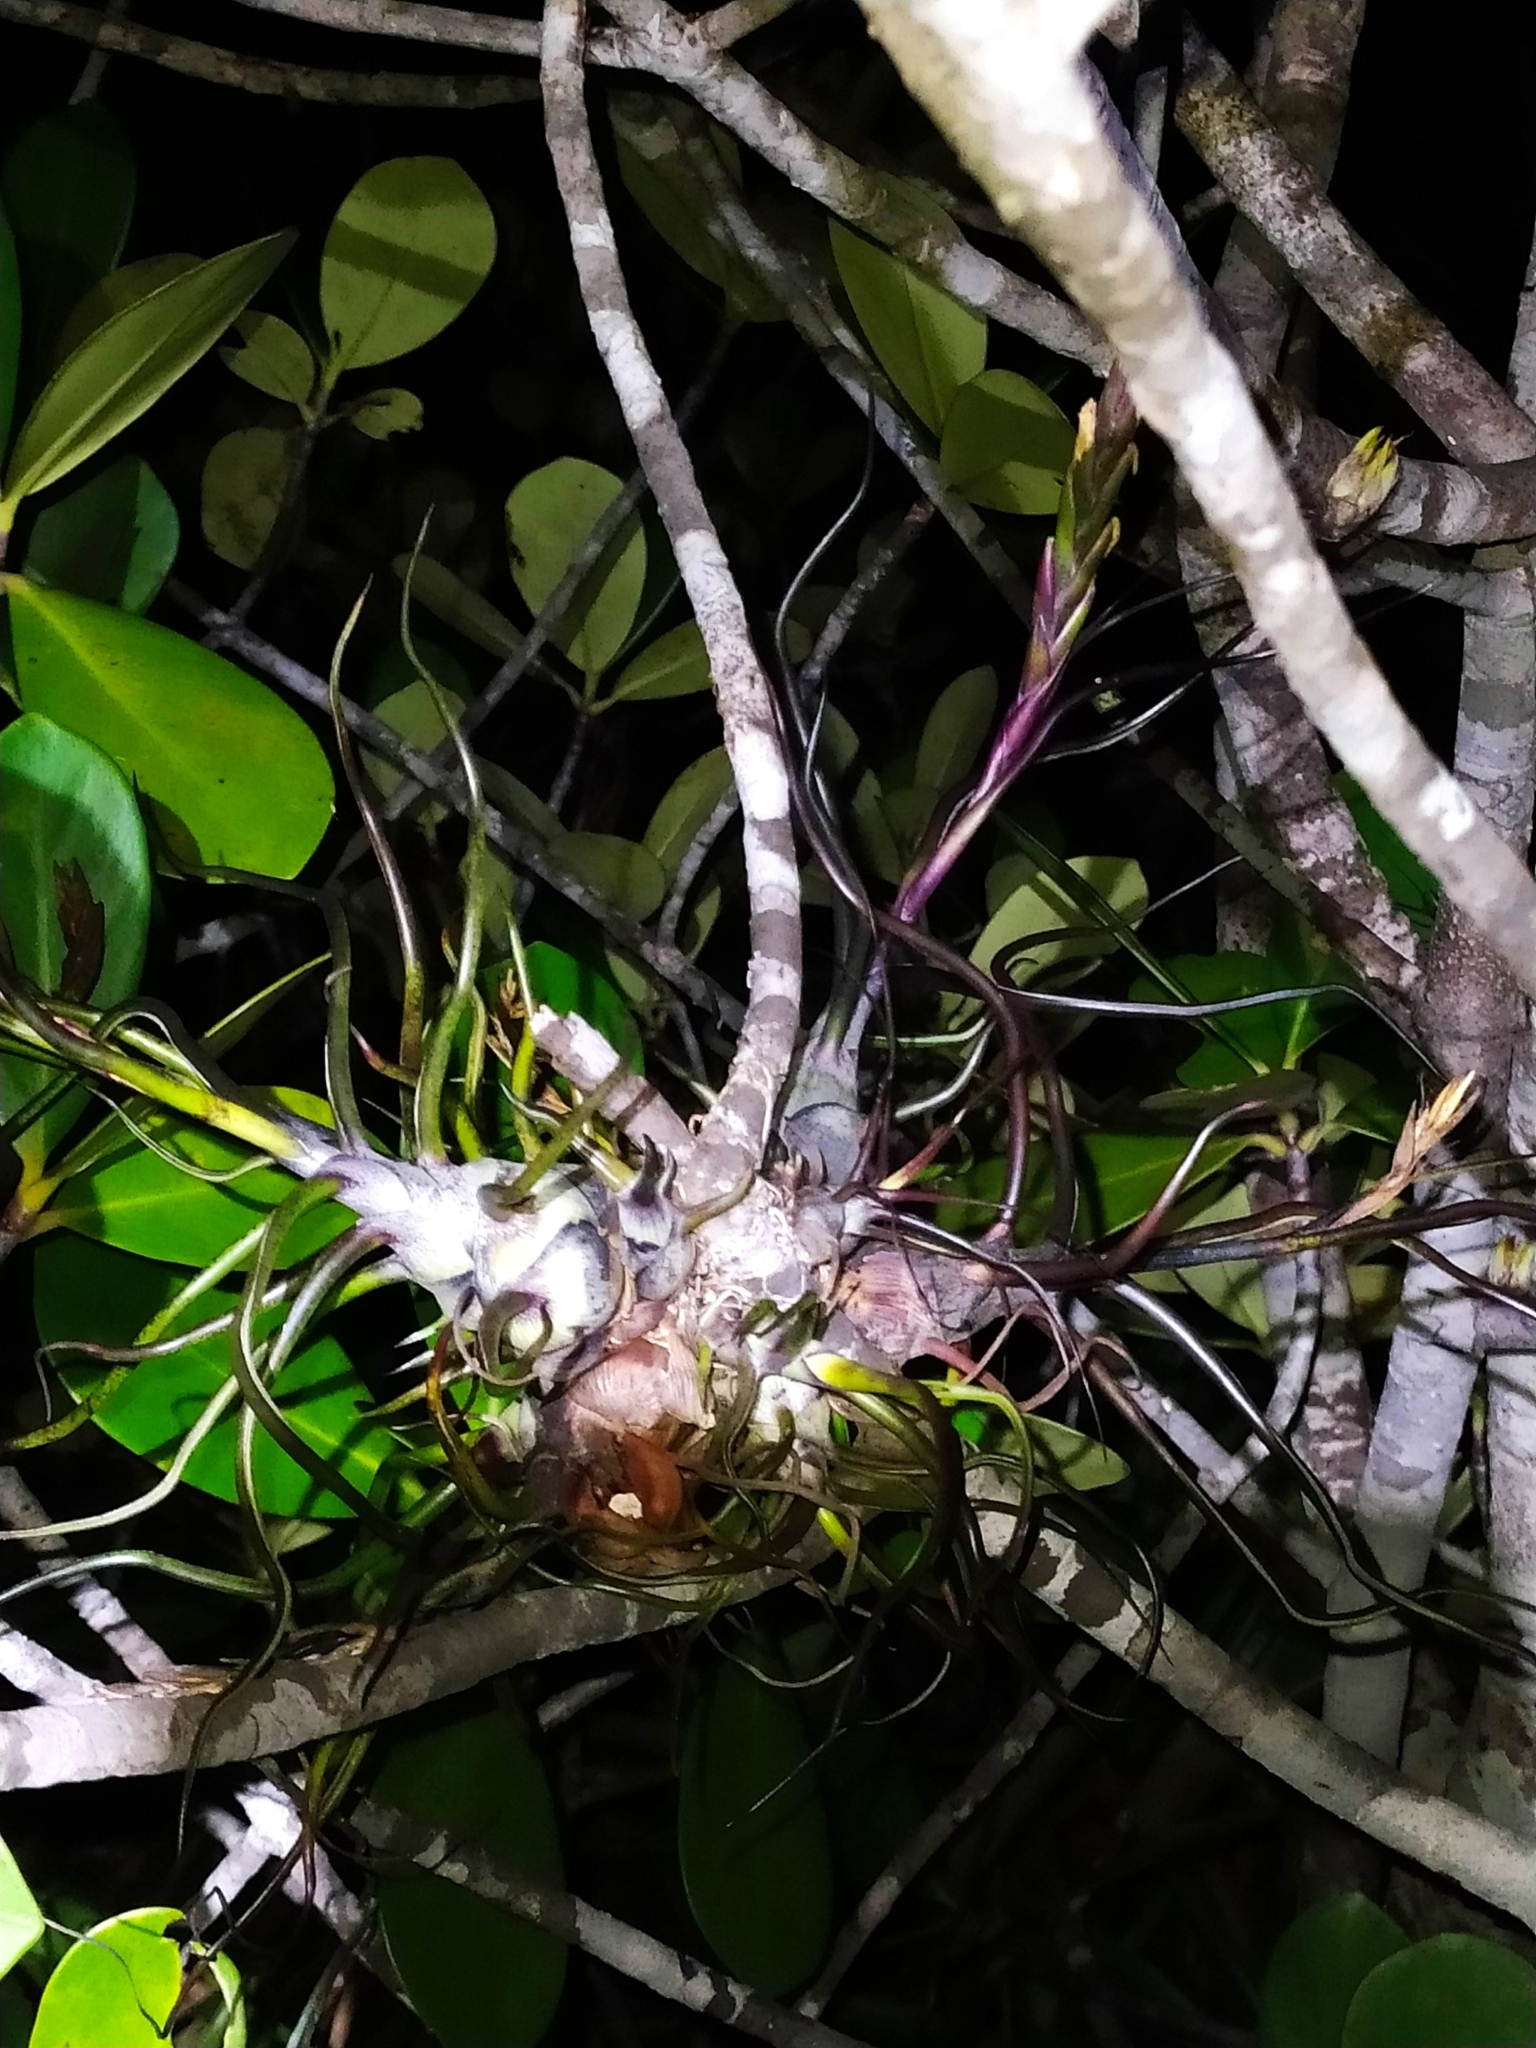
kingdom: Plantae
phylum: Tracheophyta
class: Liliopsida
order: Poales
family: Bromeliaceae
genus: Tillandsia
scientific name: Tillandsia bulbosa
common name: Bulbous airplant
